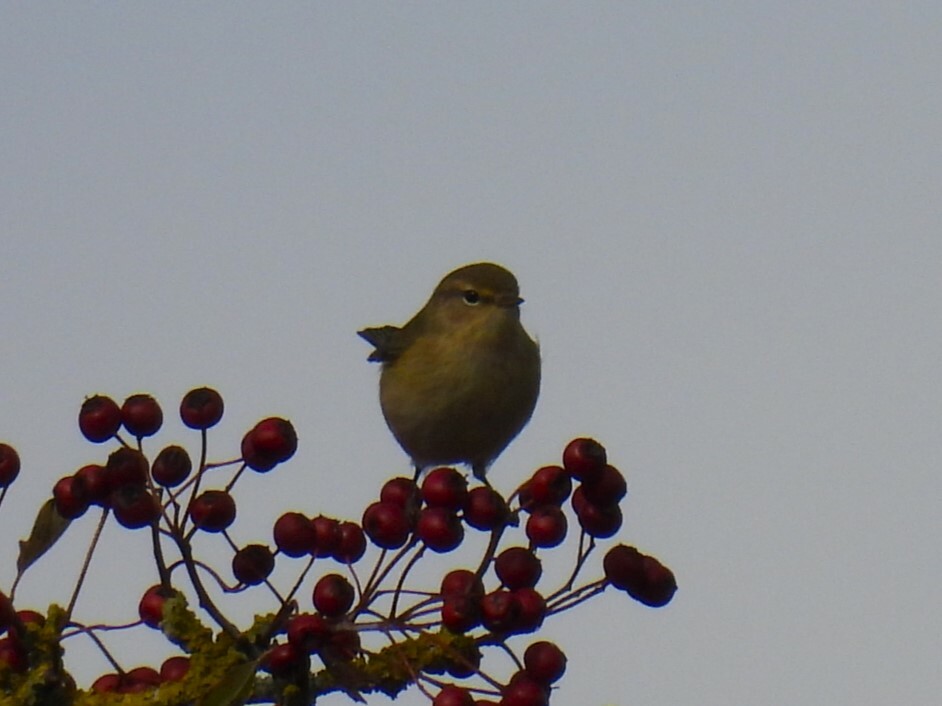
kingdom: Animalia
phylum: Chordata
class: Aves
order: Passeriformes
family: Phylloscopidae
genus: Phylloscopus
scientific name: Phylloscopus collybita
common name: Common chiffchaff
